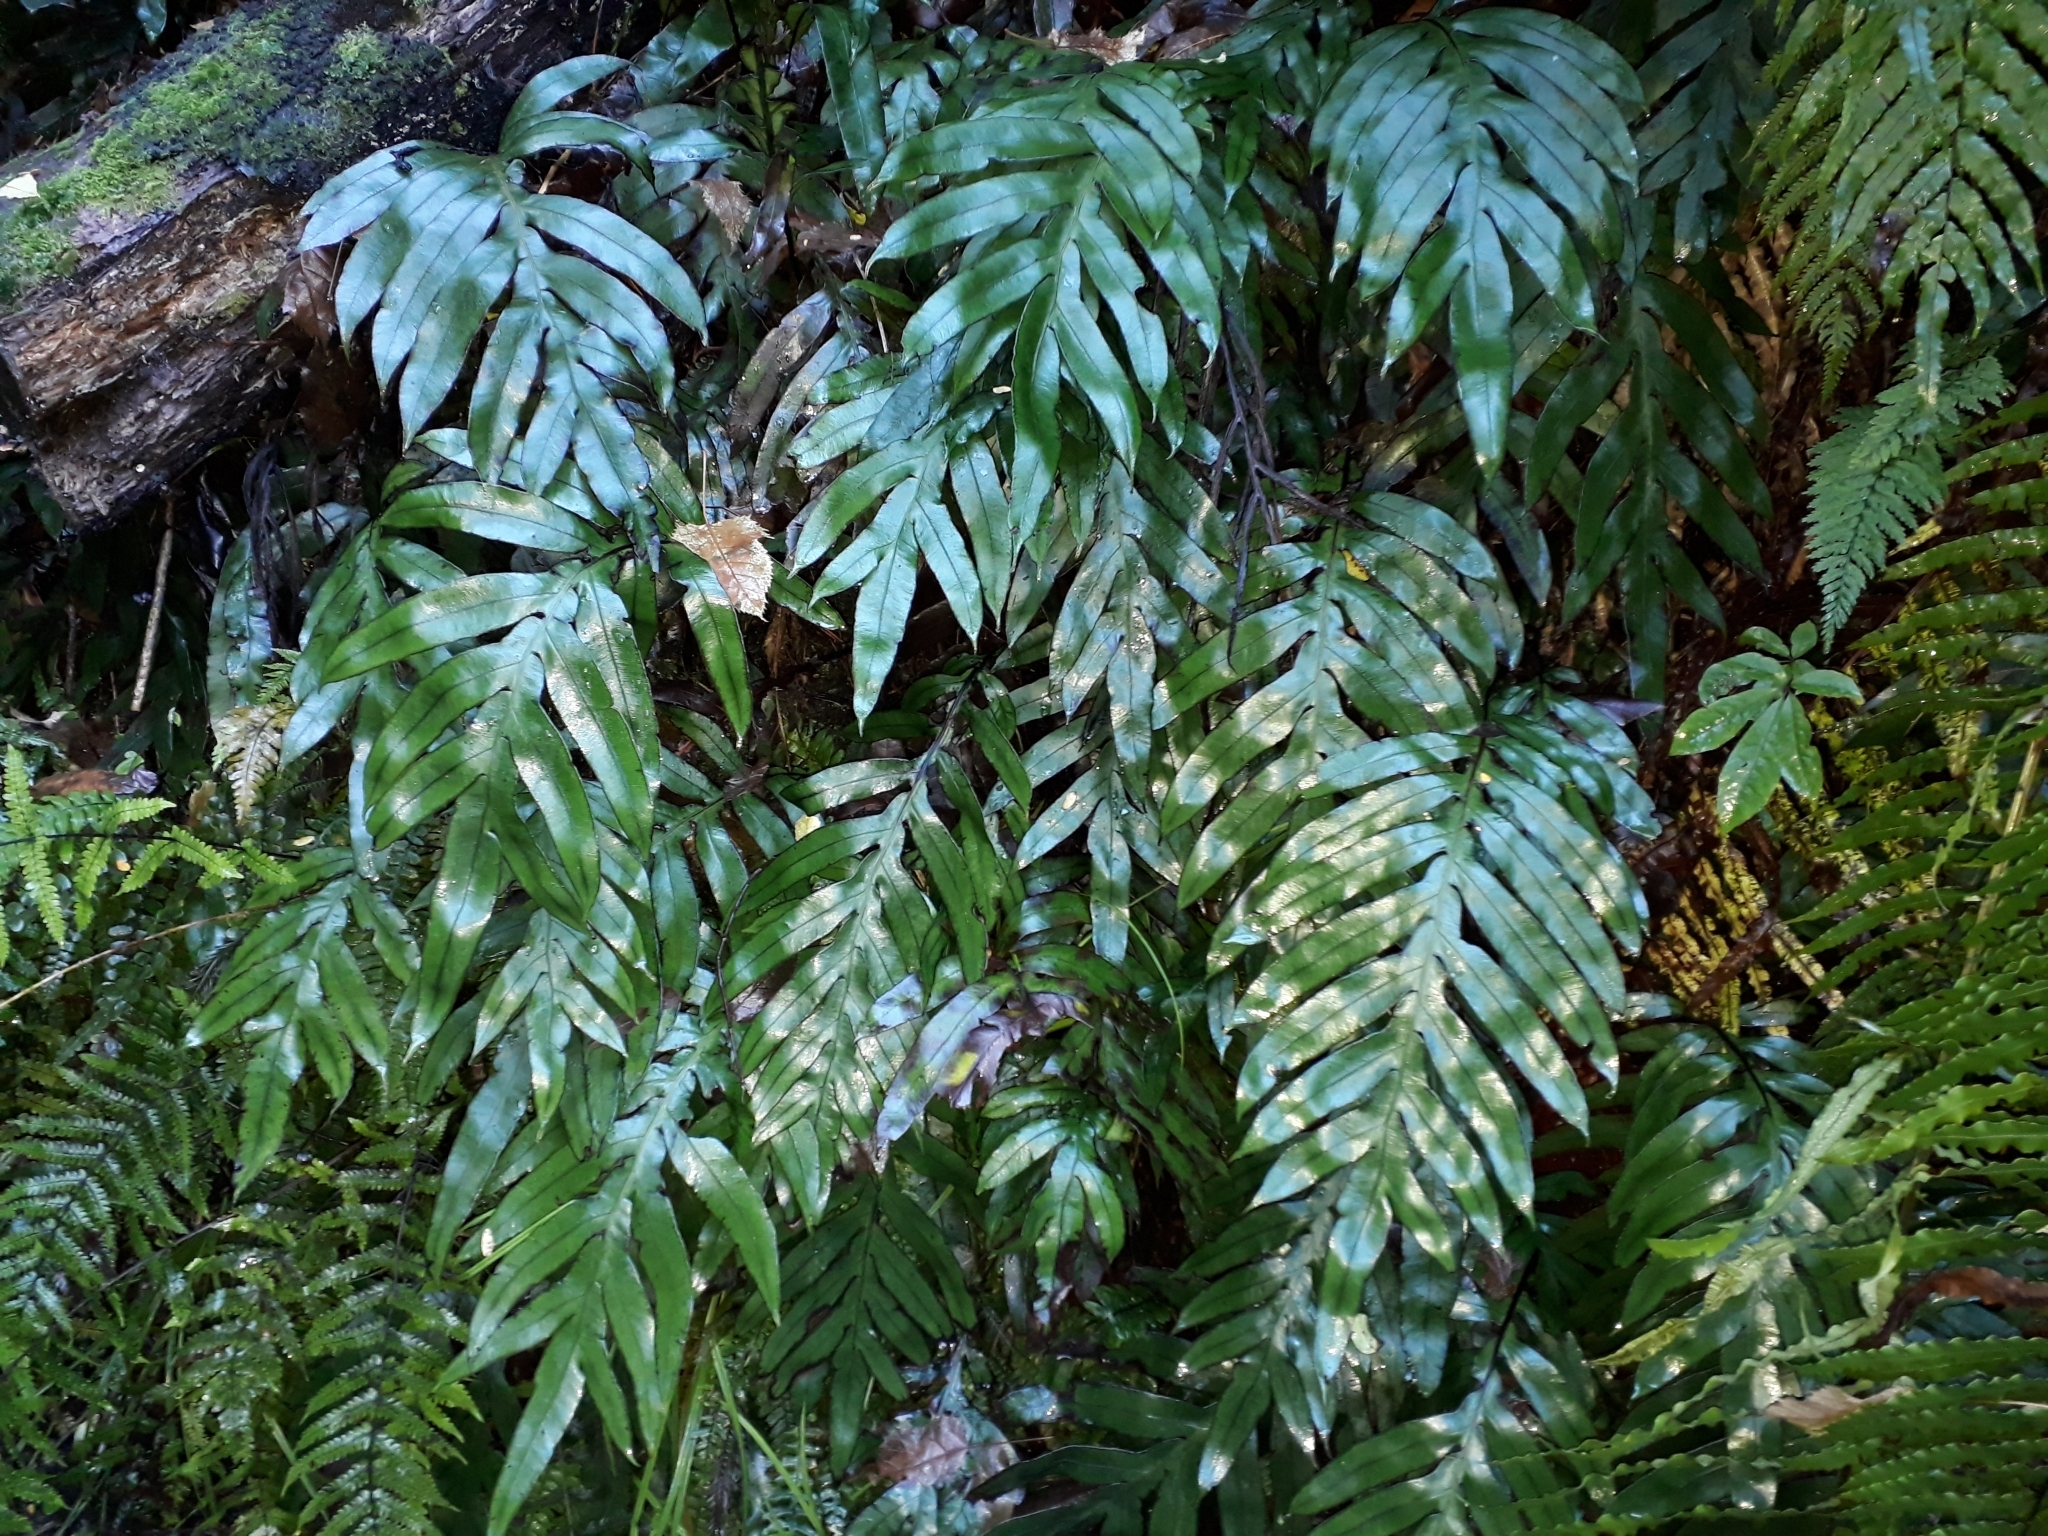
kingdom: Plantae
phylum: Tracheophyta
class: Polypodiopsida
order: Polypodiales
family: Blechnaceae
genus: Austroblechnum
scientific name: Austroblechnum colensoi
